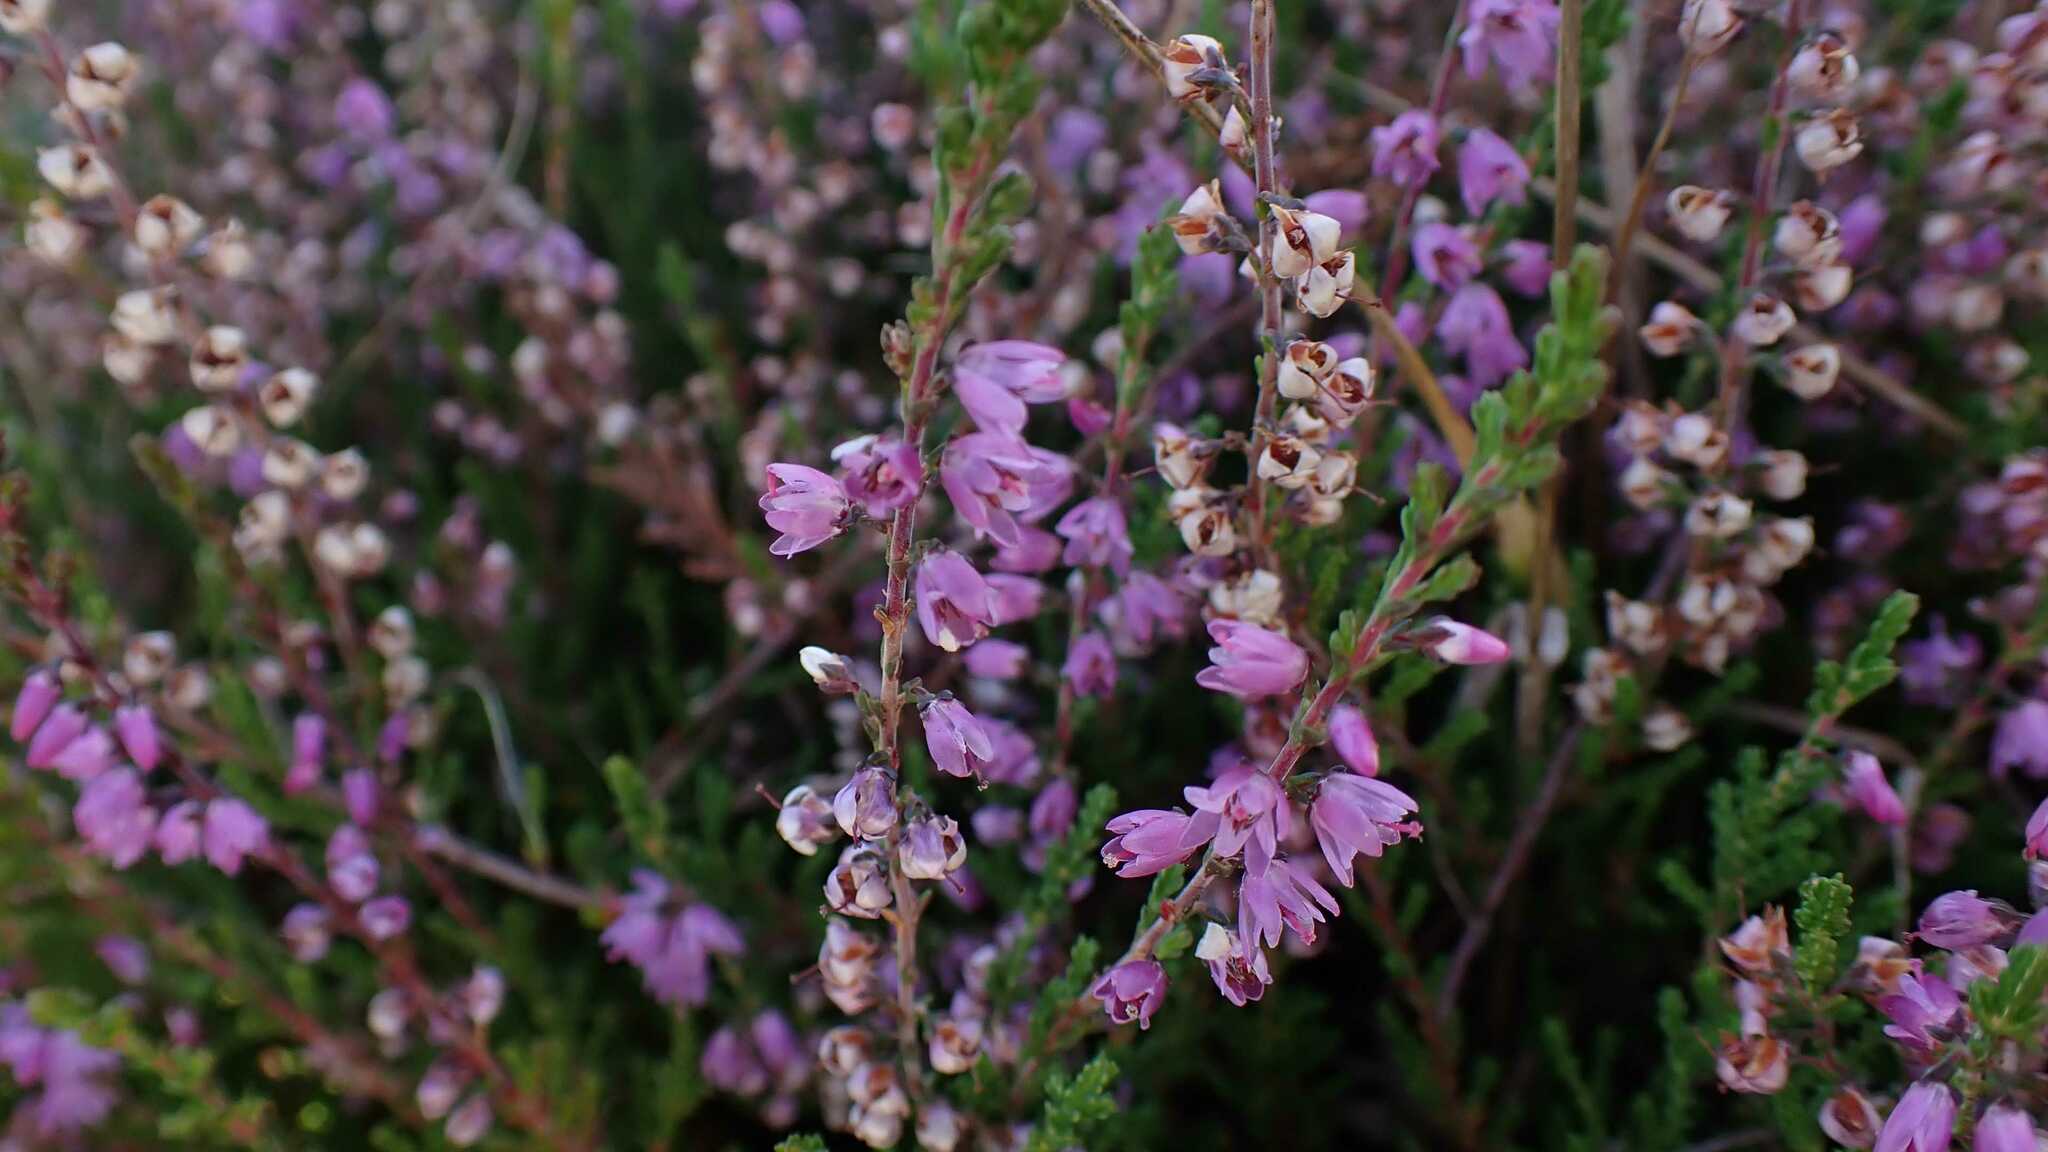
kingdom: Plantae
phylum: Tracheophyta
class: Magnoliopsida
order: Ericales
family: Ericaceae
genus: Calluna
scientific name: Calluna vulgaris
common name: Heather
